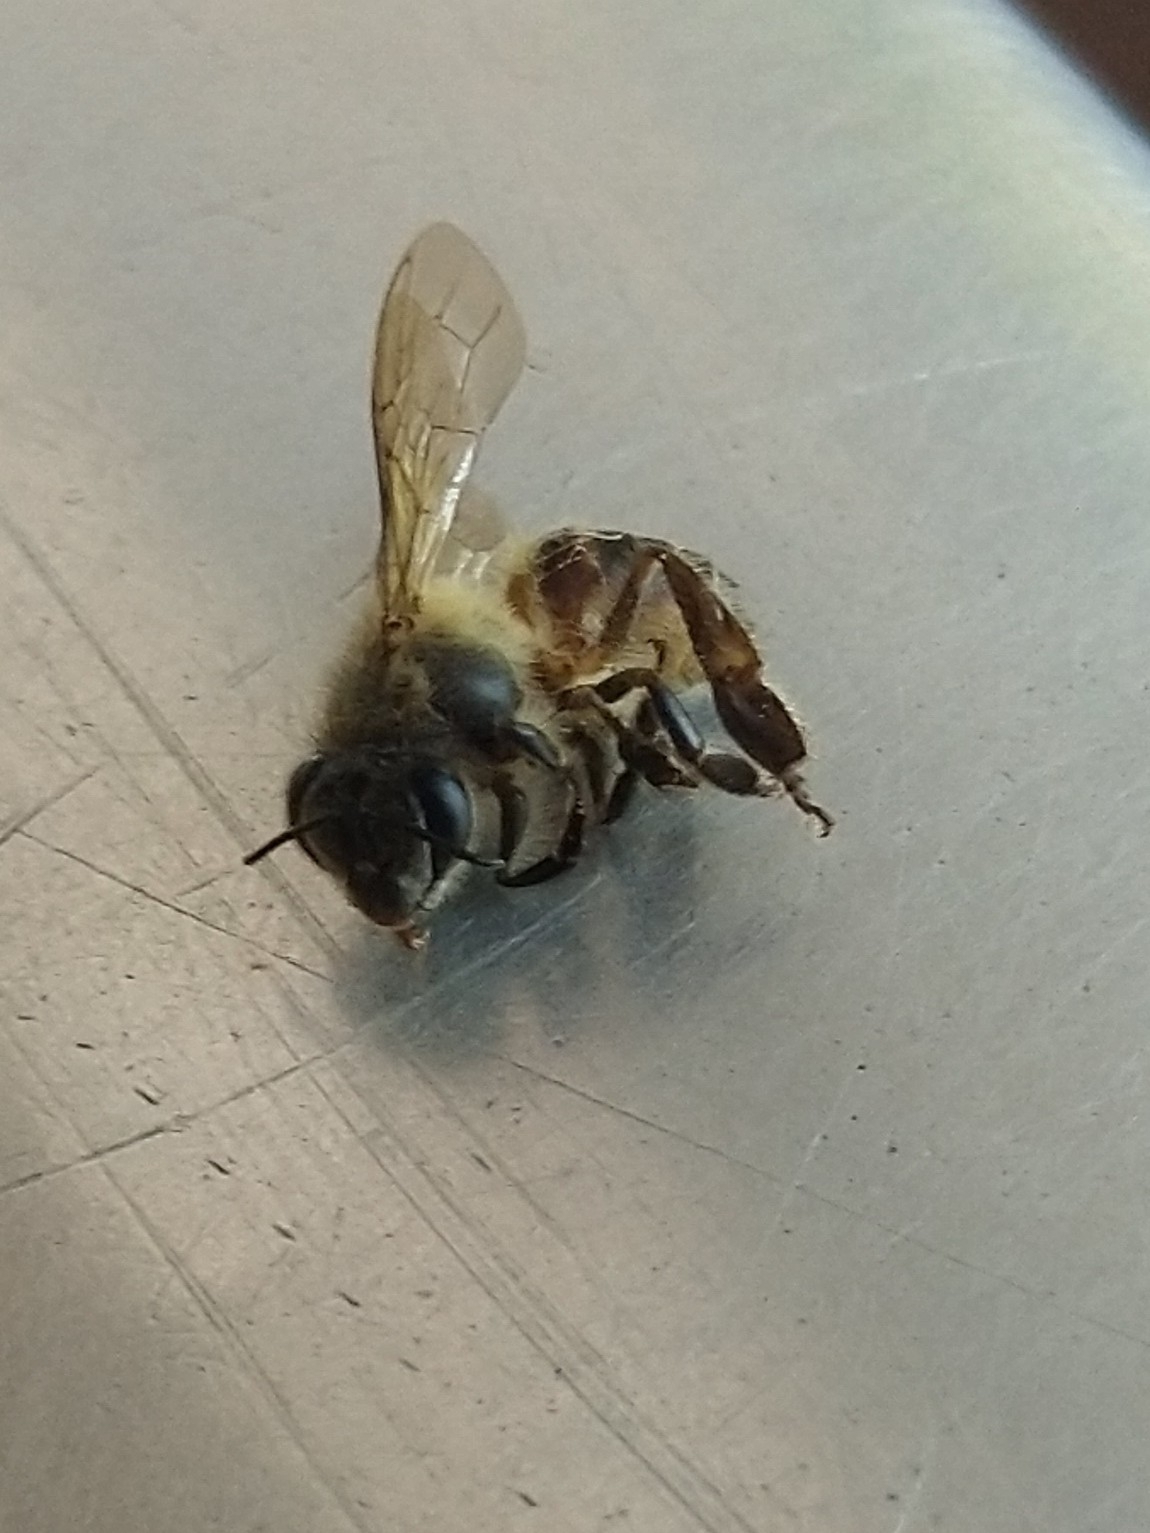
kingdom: Animalia
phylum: Arthropoda
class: Insecta
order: Hymenoptera
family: Apidae
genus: Apis
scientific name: Apis cerana
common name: Honey bee
